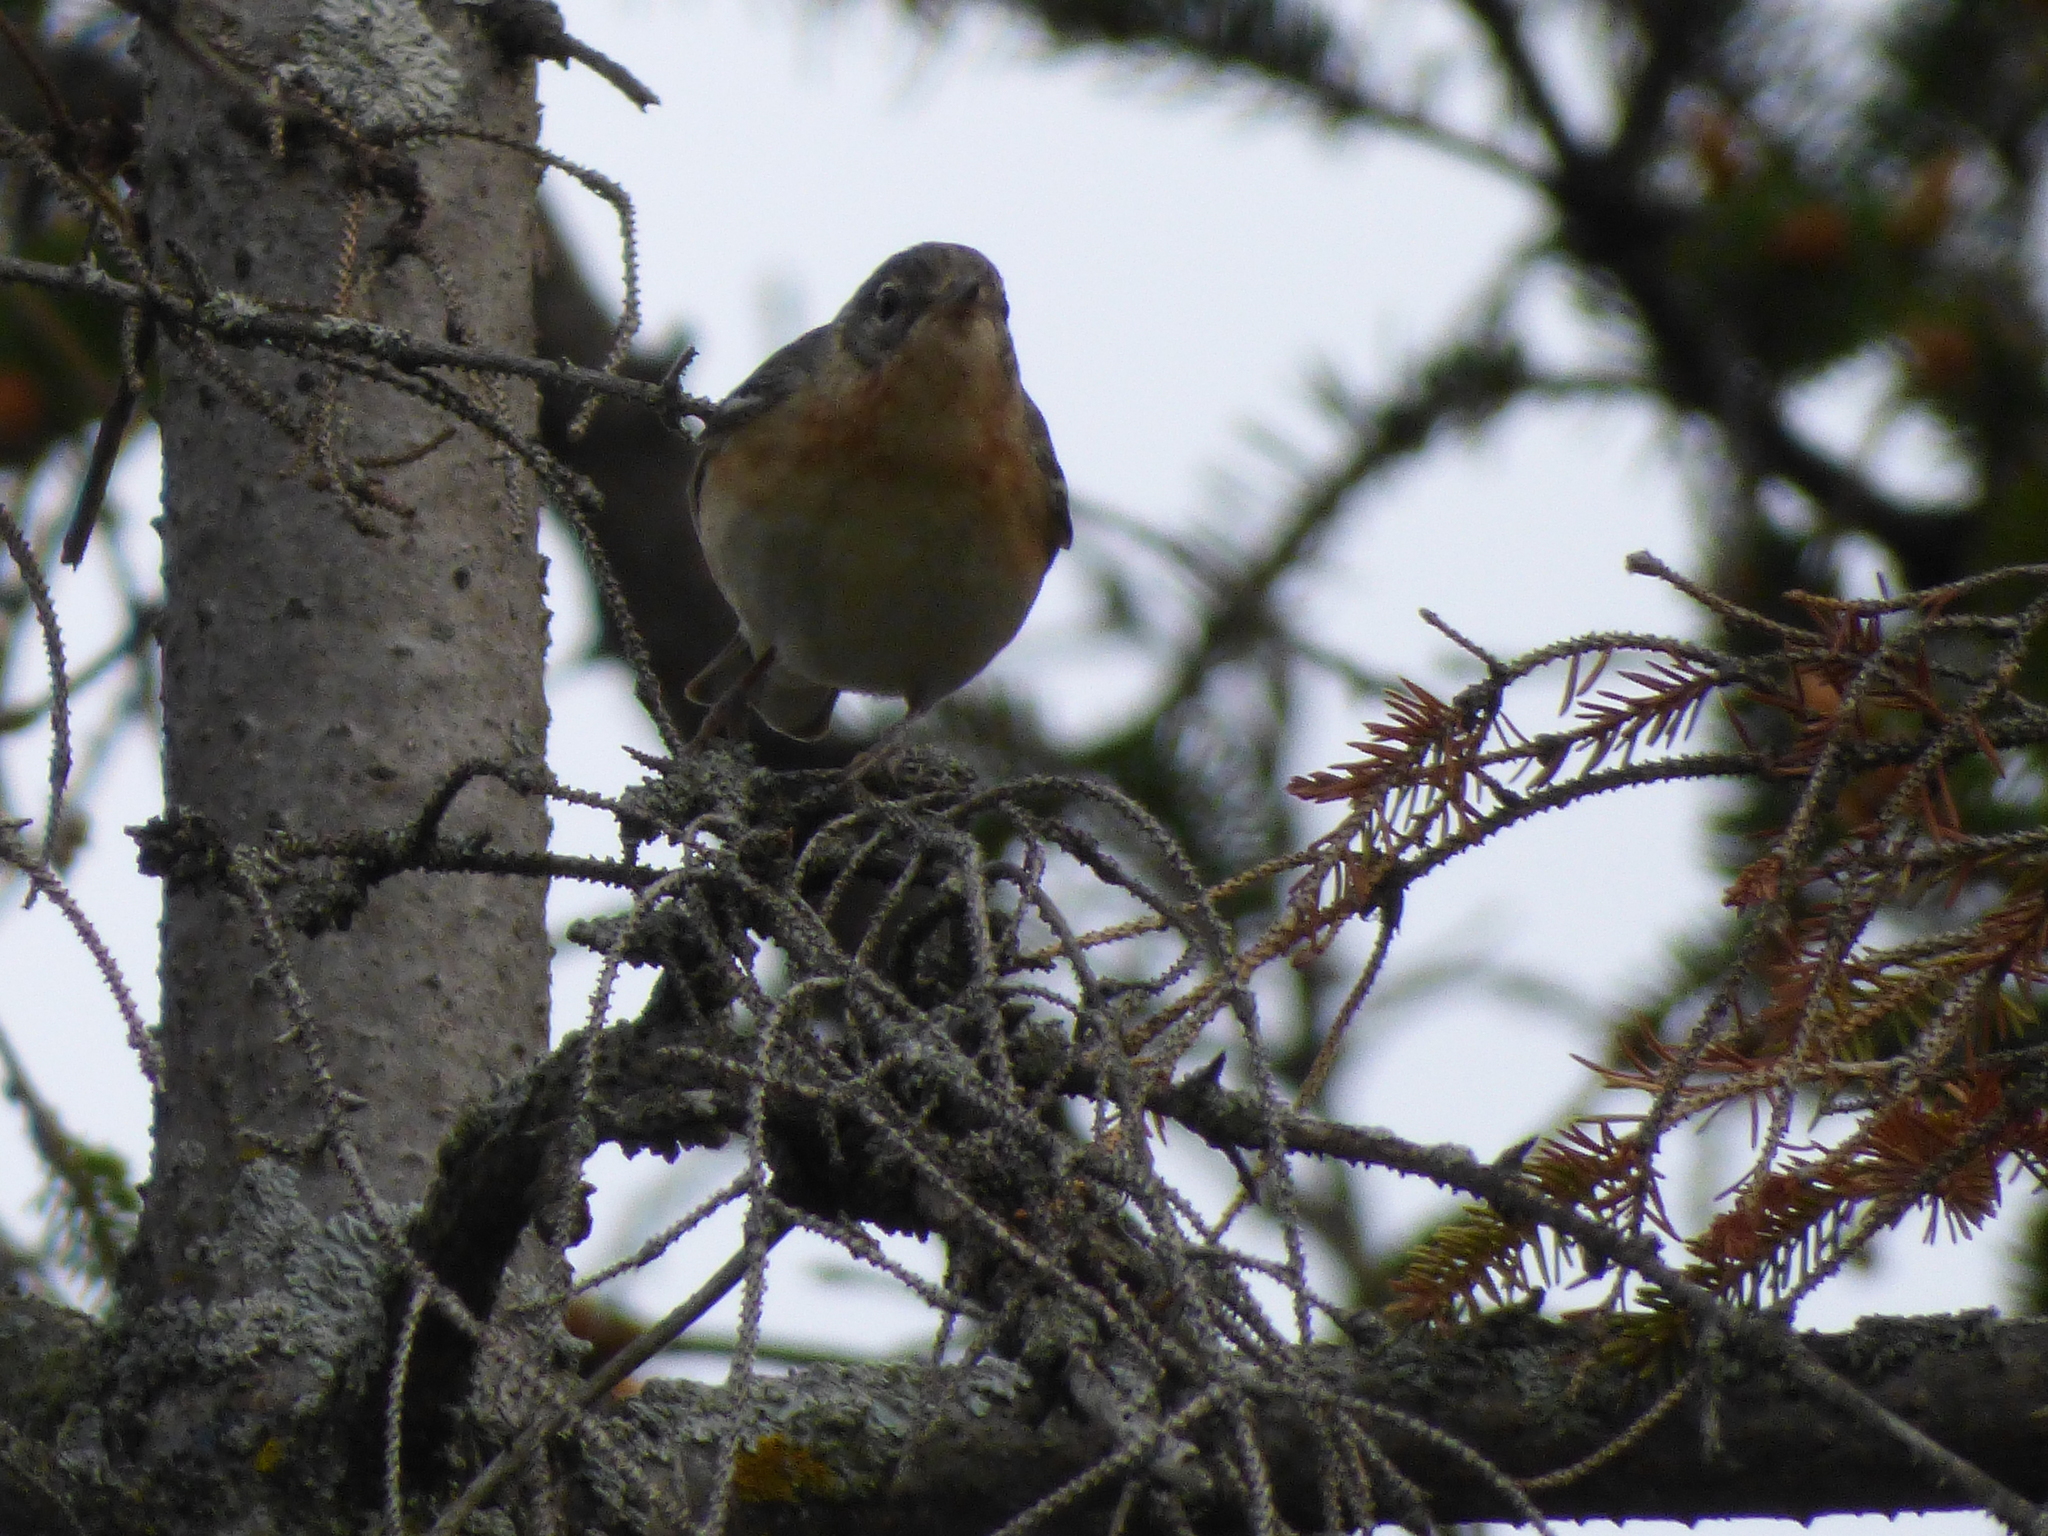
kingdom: Animalia
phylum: Chordata
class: Aves
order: Passeriformes
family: Parulidae
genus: Setophaga
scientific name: Setophaga castanea
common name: Bay-breasted warbler
